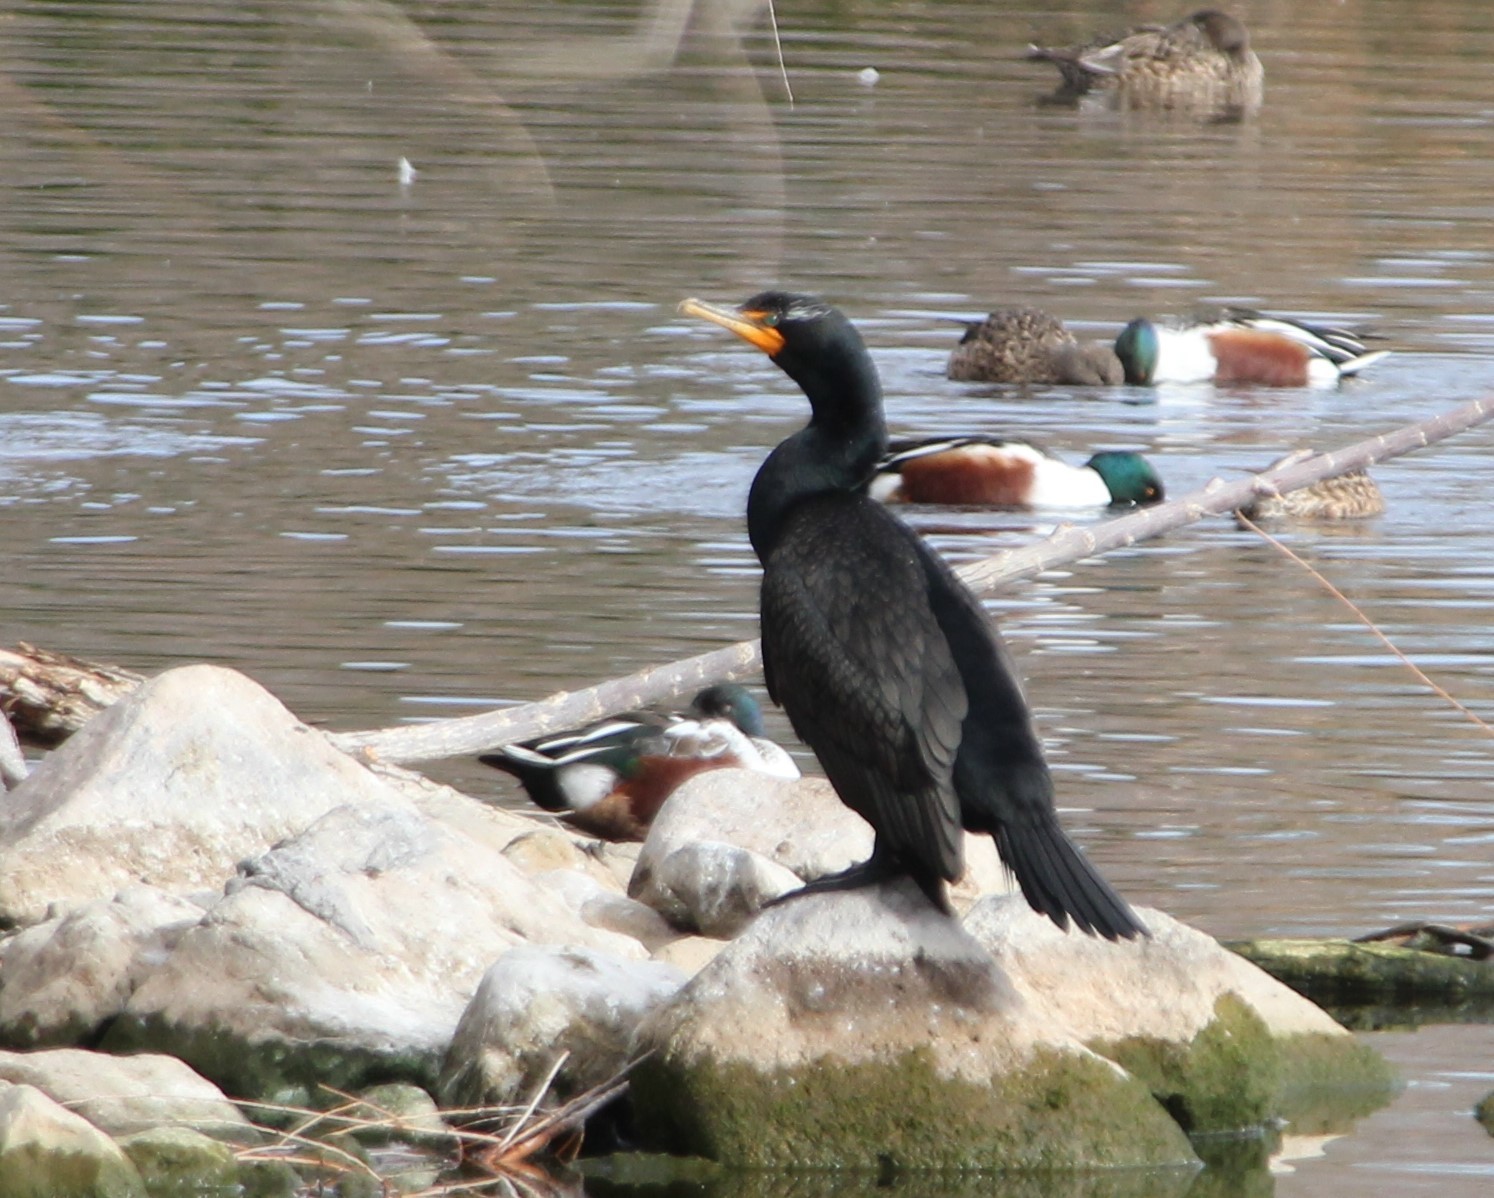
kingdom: Animalia
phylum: Chordata
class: Aves
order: Suliformes
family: Phalacrocoracidae
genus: Phalacrocorax
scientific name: Phalacrocorax auritus
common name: Double-crested cormorant
